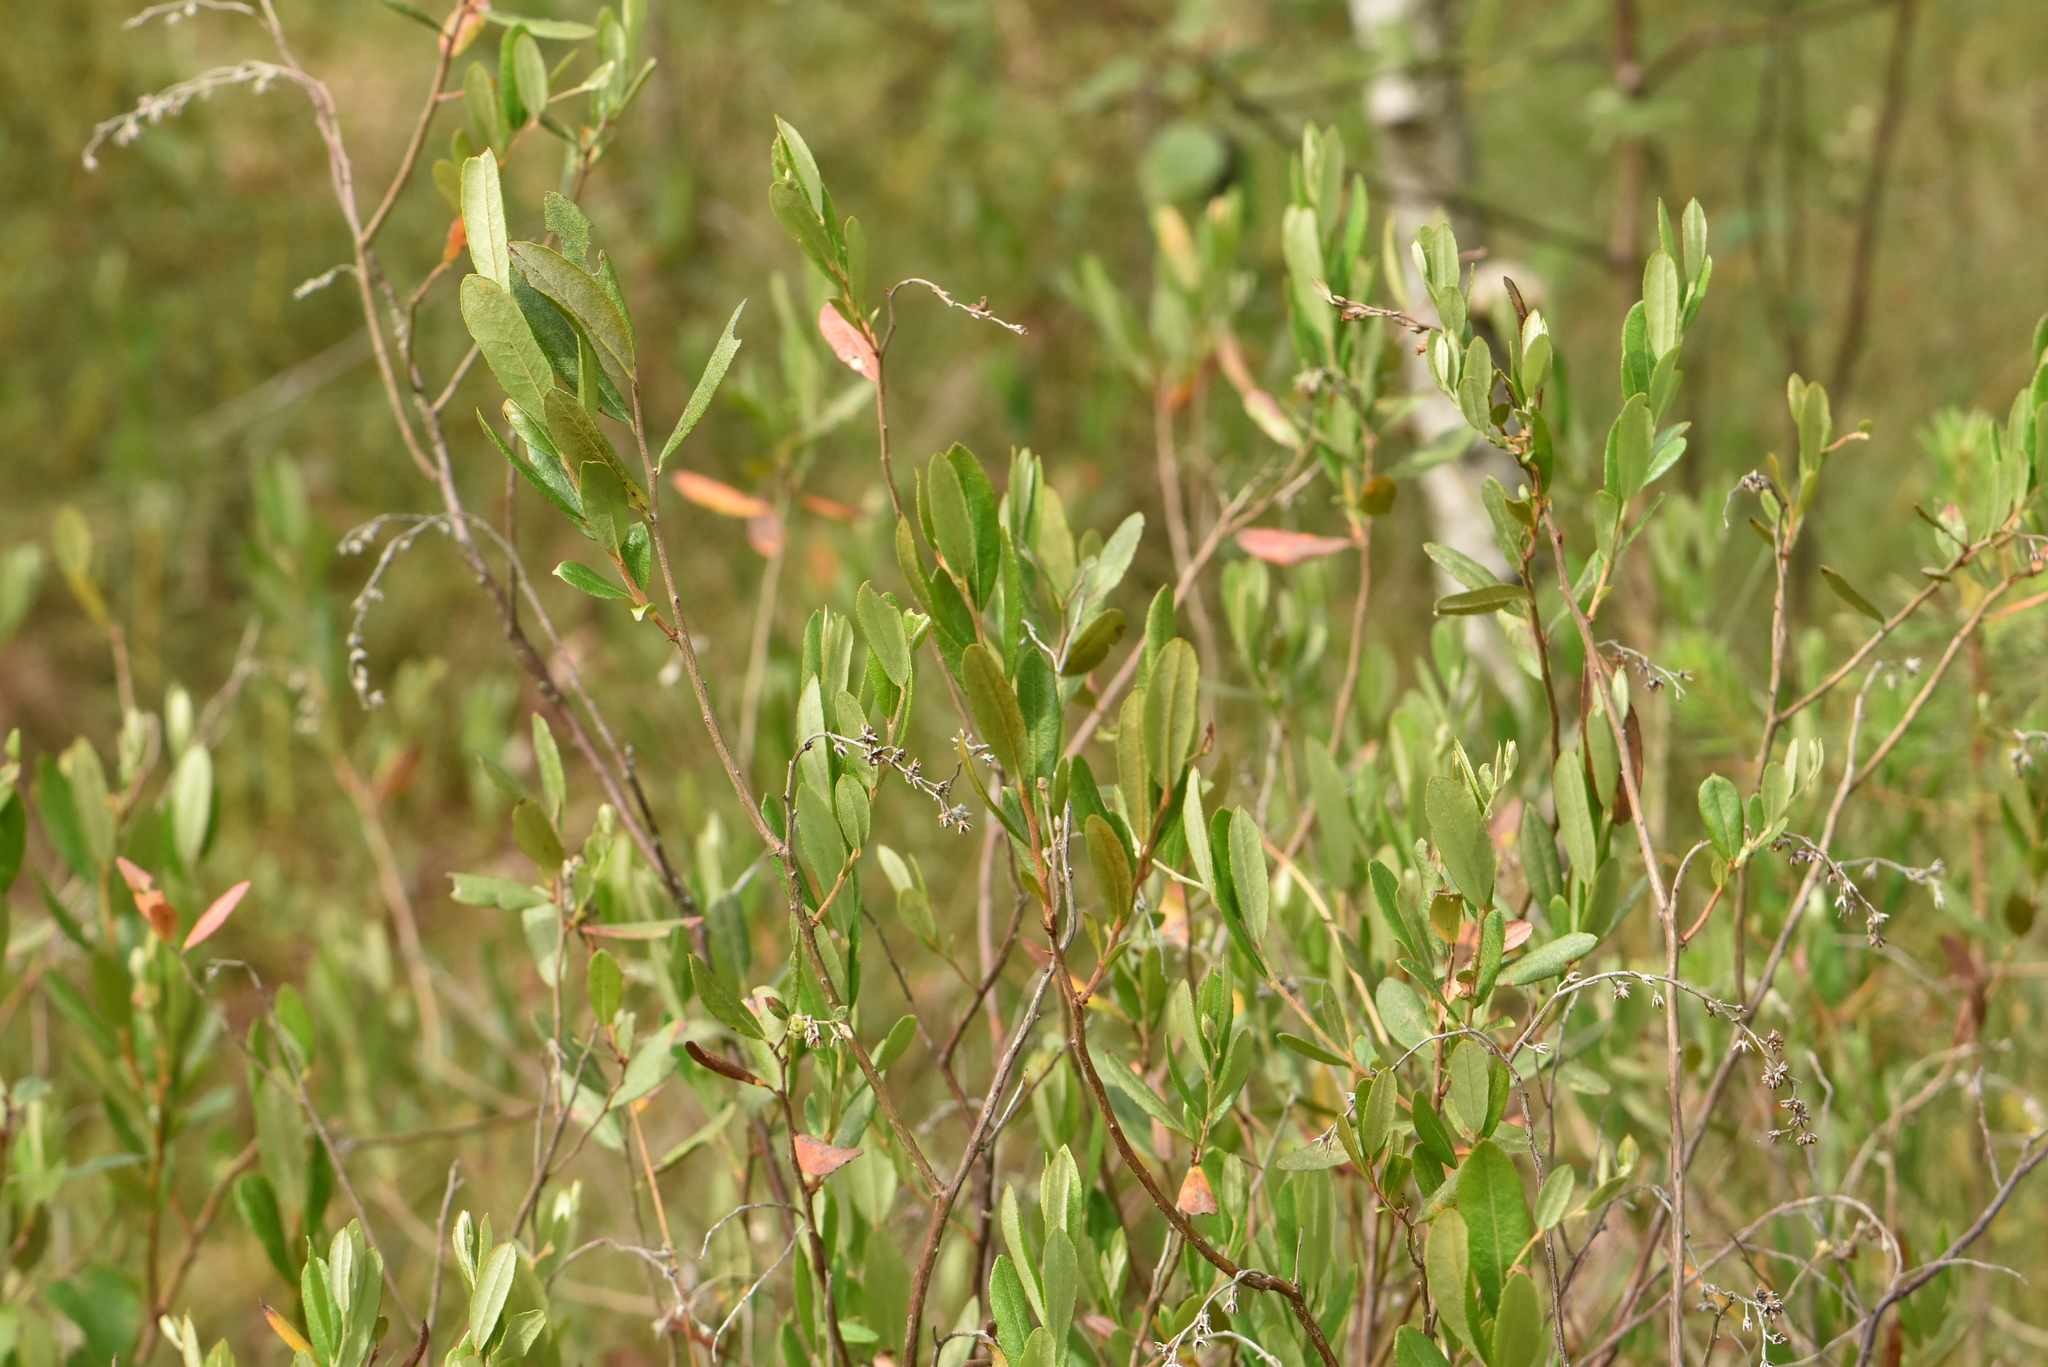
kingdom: Plantae
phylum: Tracheophyta
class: Magnoliopsida
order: Ericales
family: Ericaceae
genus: Chamaedaphne
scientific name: Chamaedaphne calyculata
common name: Leatherleaf
